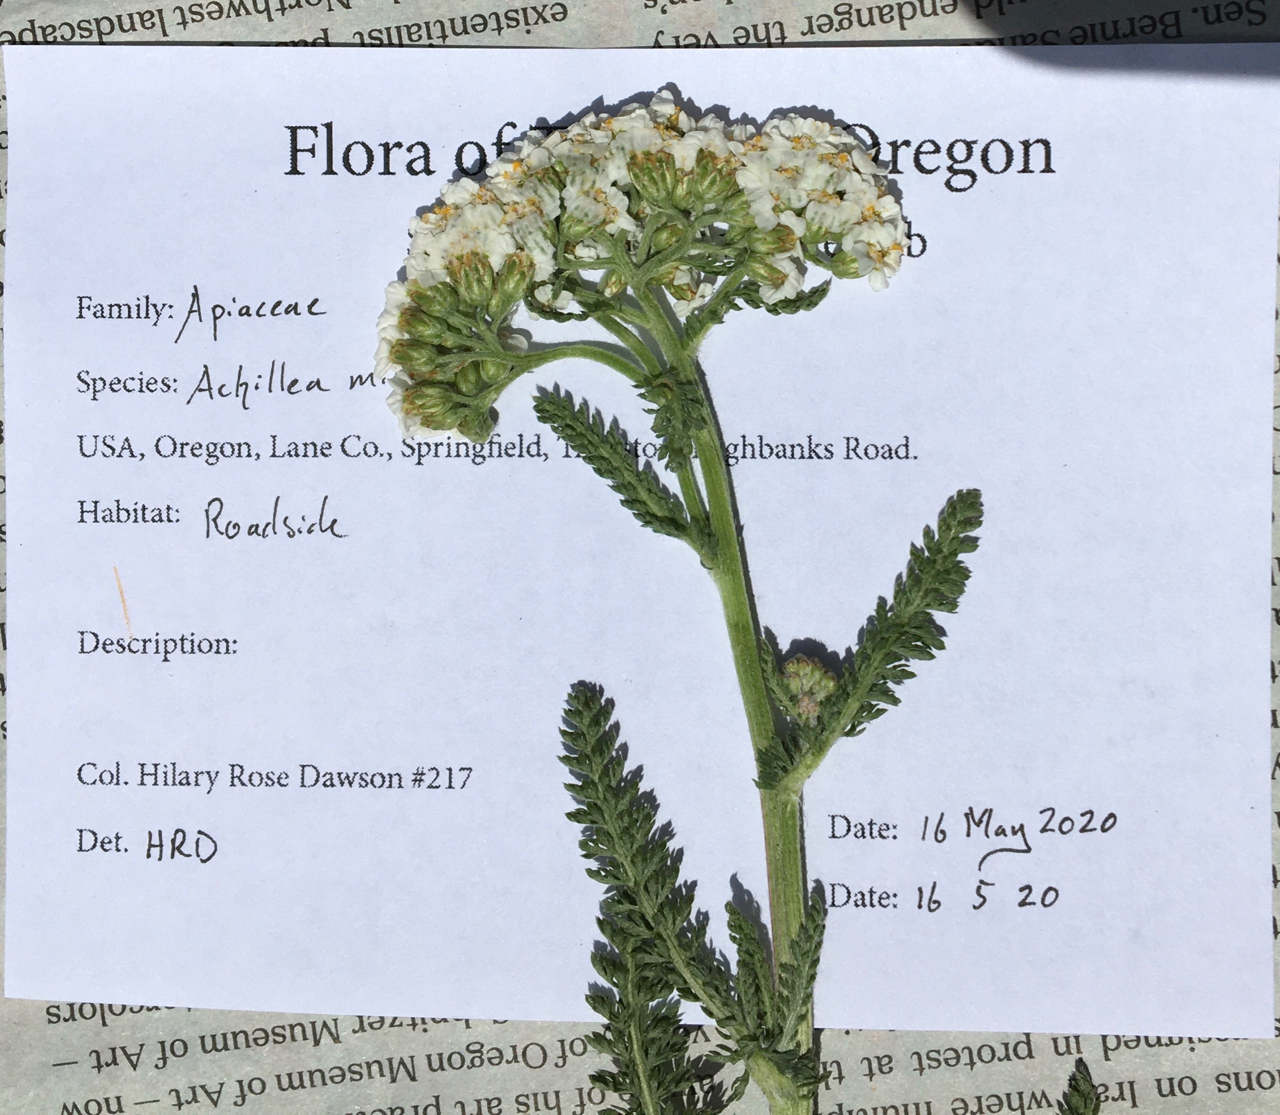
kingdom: Plantae
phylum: Tracheophyta
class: Magnoliopsida
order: Asterales
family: Asteraceae
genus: Achillea
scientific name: Achillea millefolium
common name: Yarrow
